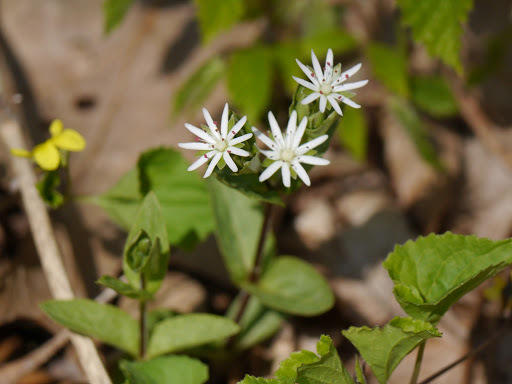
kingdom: Plantae
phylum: Tracheophyta
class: Magnoliopsida
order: Caryophyllales
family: Caryophyllaceae
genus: Stellaria
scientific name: Stellaria pubera
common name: Star chickweed
